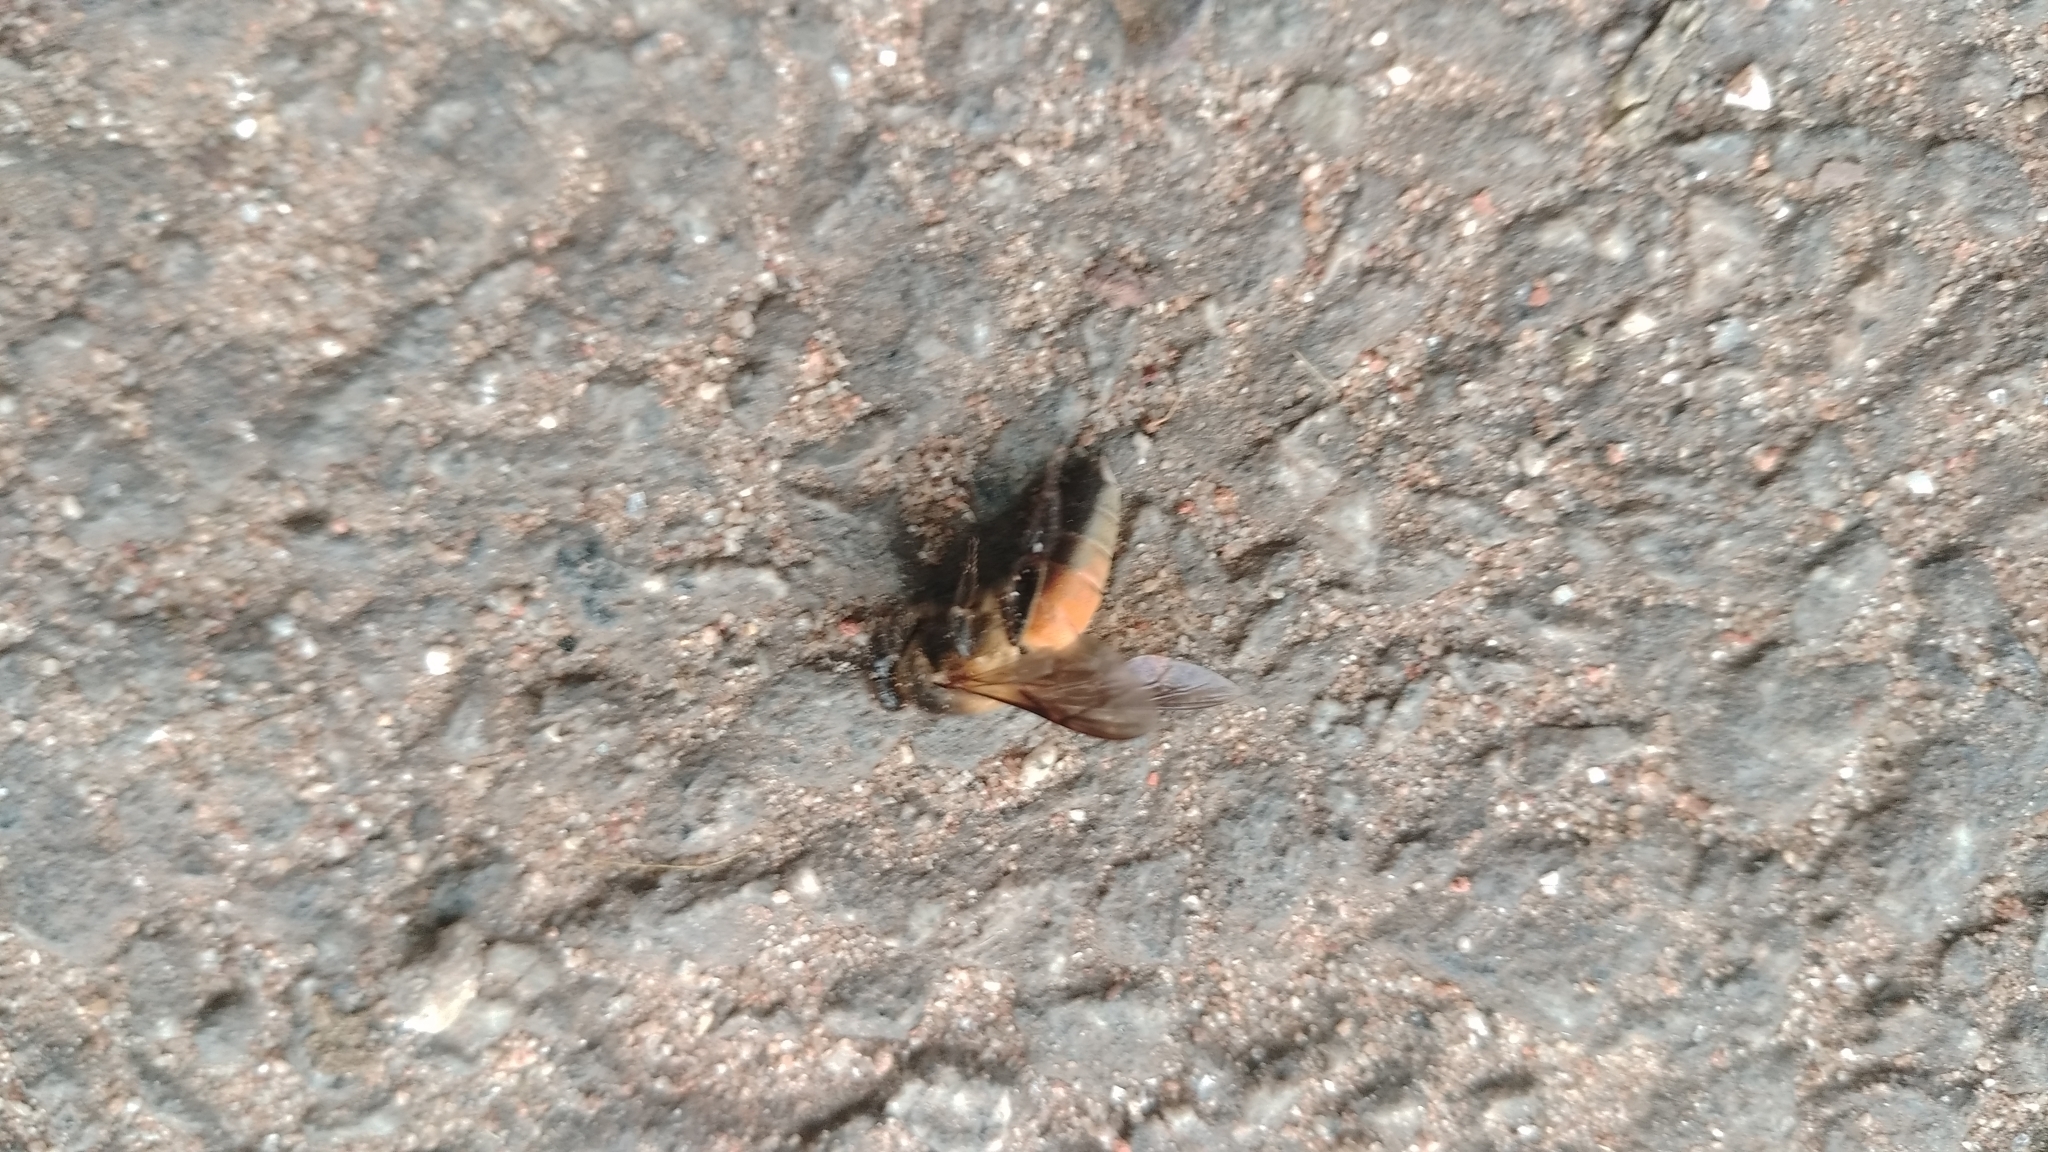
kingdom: Animalia
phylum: Arthropoda
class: Insecta
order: Hymenoptera
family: Apidae
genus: Apis
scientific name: Apis dorsata
